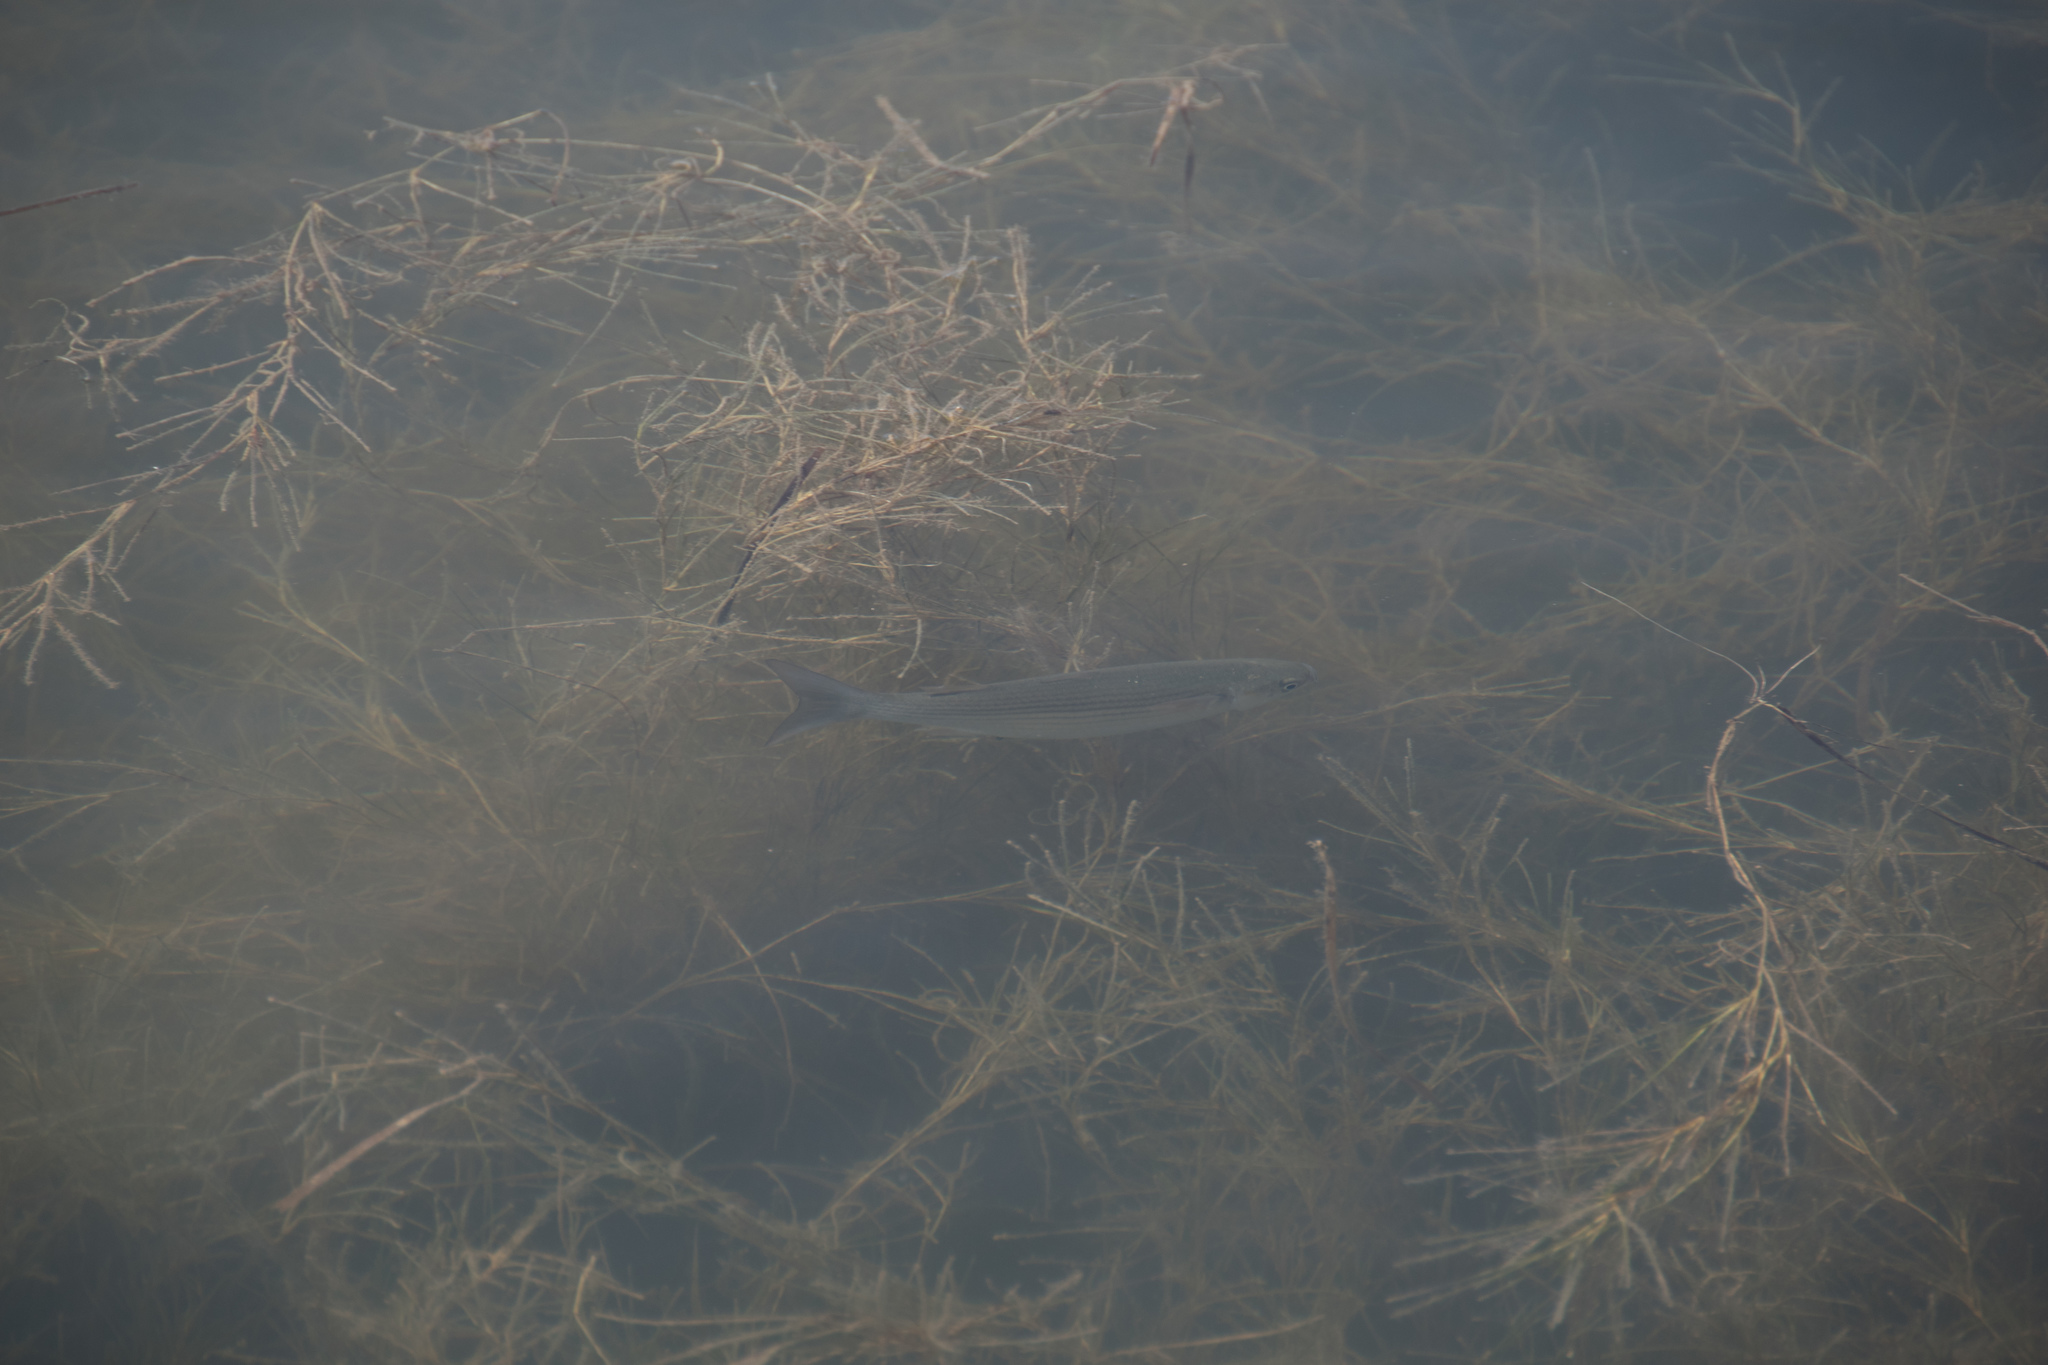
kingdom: Animalia
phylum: Chordata
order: Mugiliformes
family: Mugilidae
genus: Chelon
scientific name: Chelon
